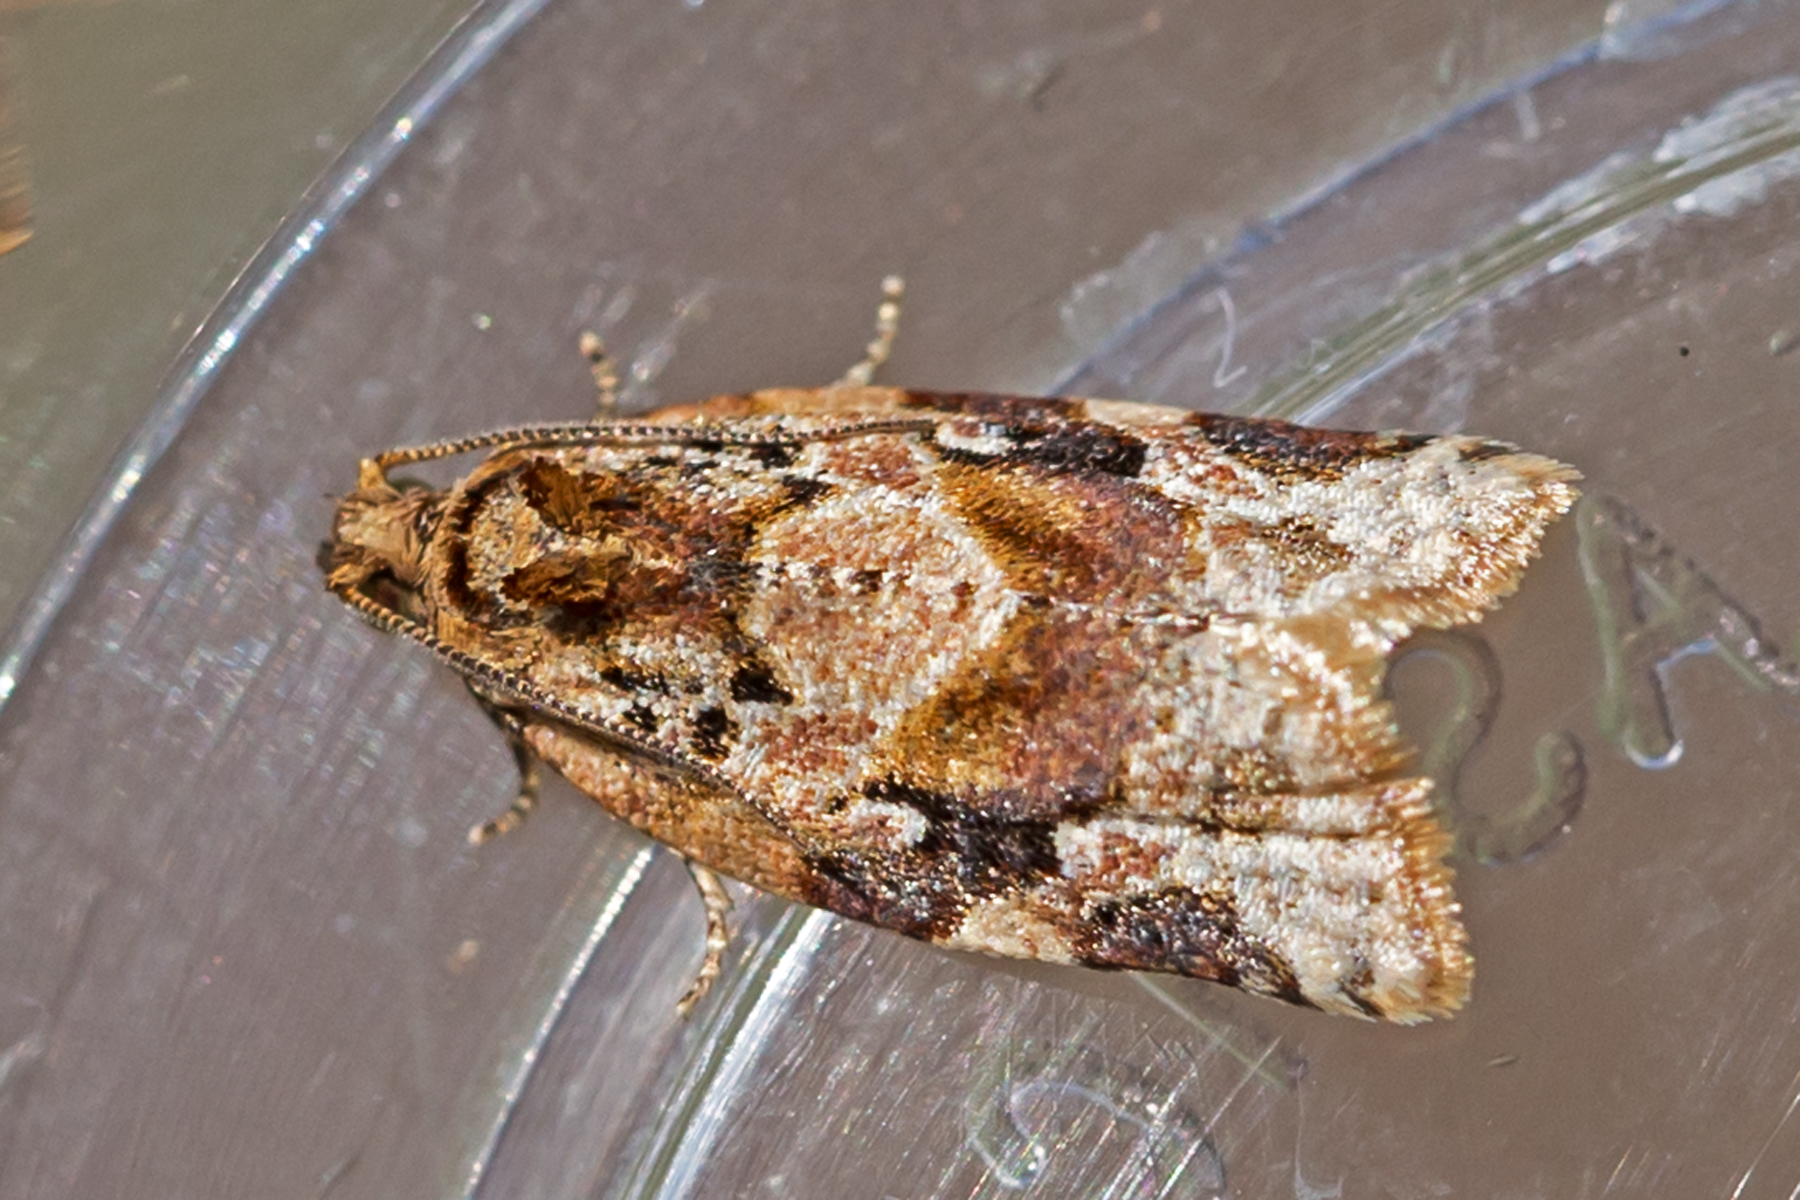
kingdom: Animalia
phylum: Arthropoda
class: Insecta
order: Lepidoptera
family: Tortricidae
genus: Argyrotaenia
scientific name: Argyrotaenia velutinana
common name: Red-banded leafroller moth
